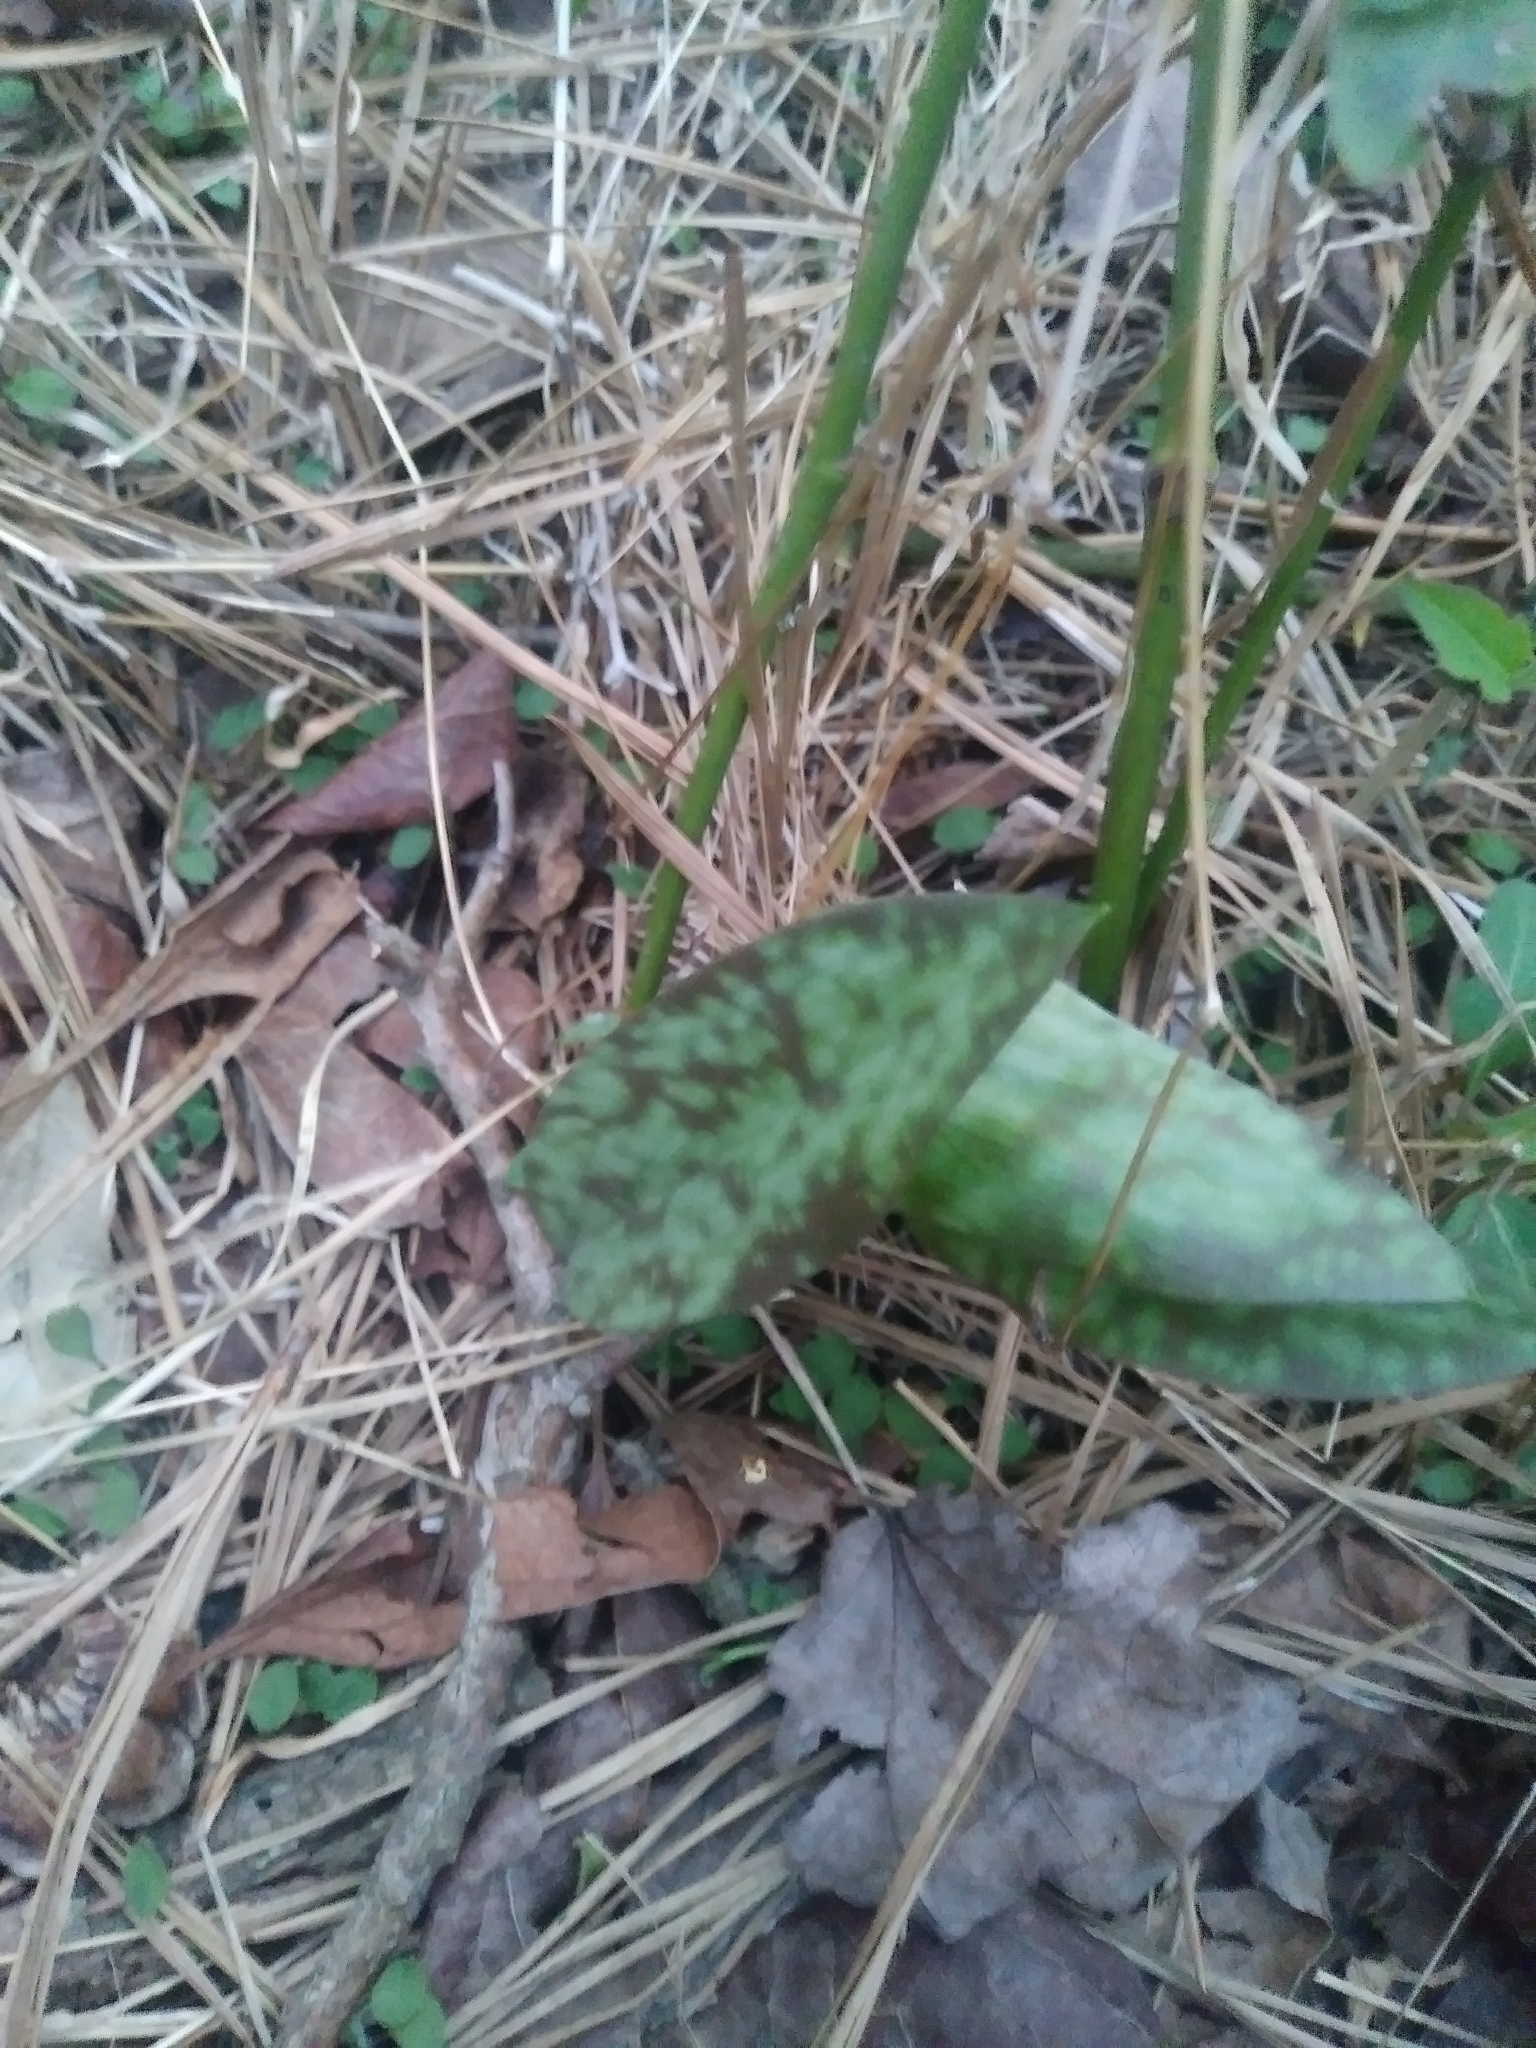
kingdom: Plantae
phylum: Tracheophyta
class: Liliopsida
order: Liliales
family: Liliaceae
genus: Erythronium
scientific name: Erythronium americanum
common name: Yellow adder's-tongue
